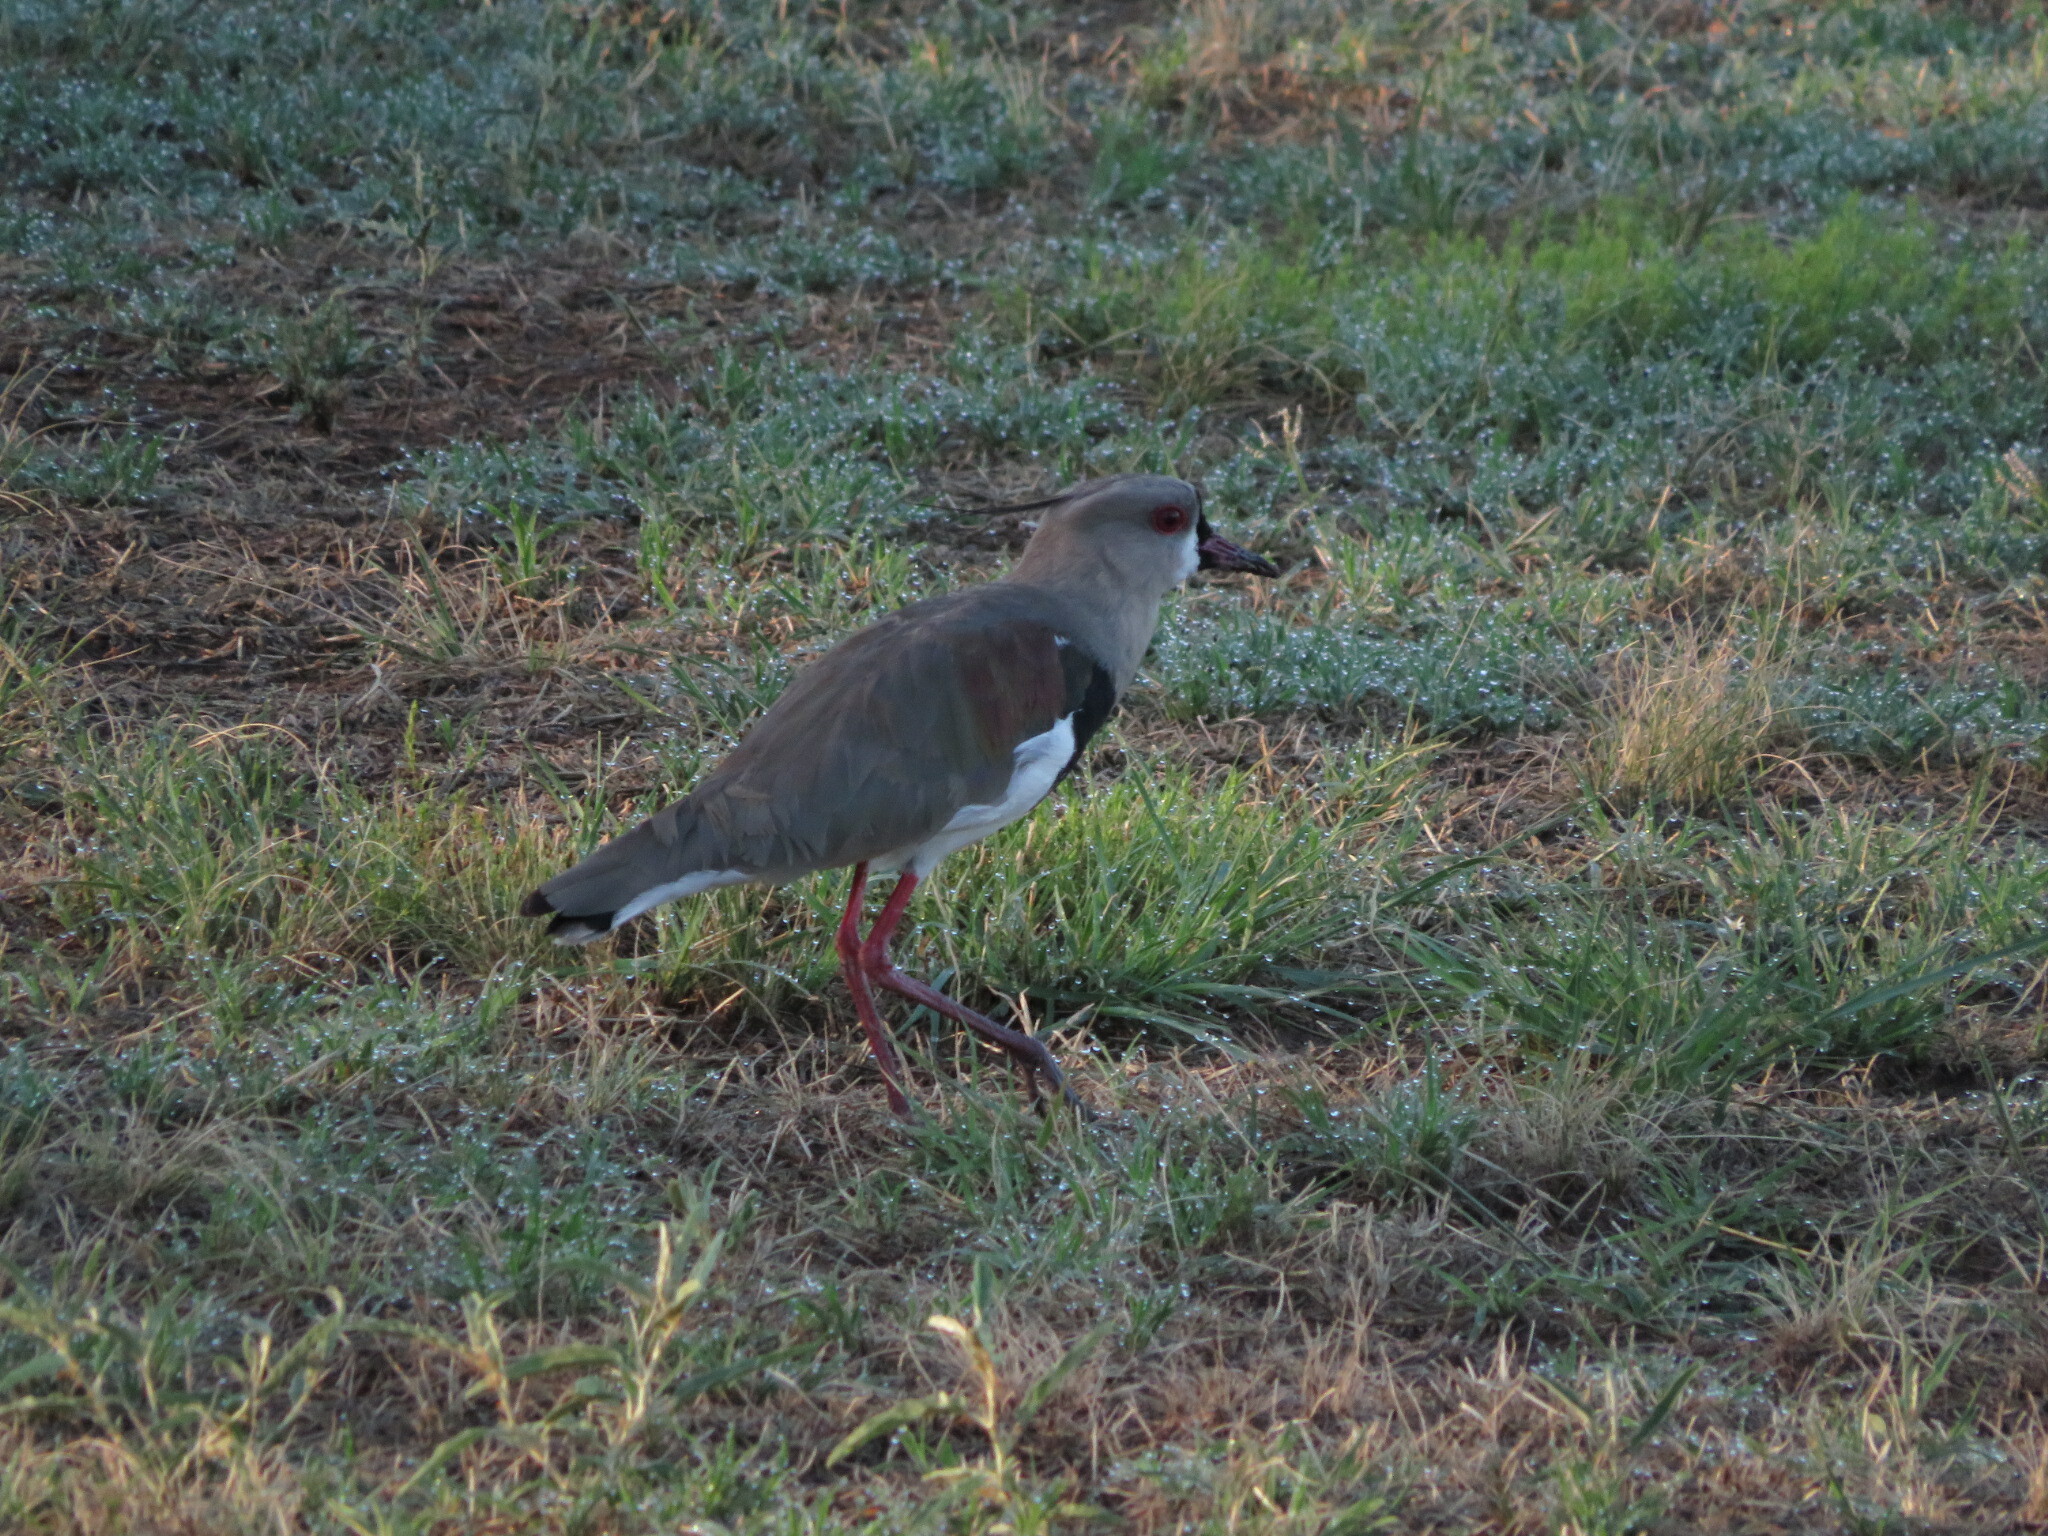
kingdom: Animalia
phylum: Chordata
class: Aves
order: Charadriiformes
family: Charadriidae
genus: Vanellus
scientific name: Vanellus chilensis
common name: Southern lapwing
